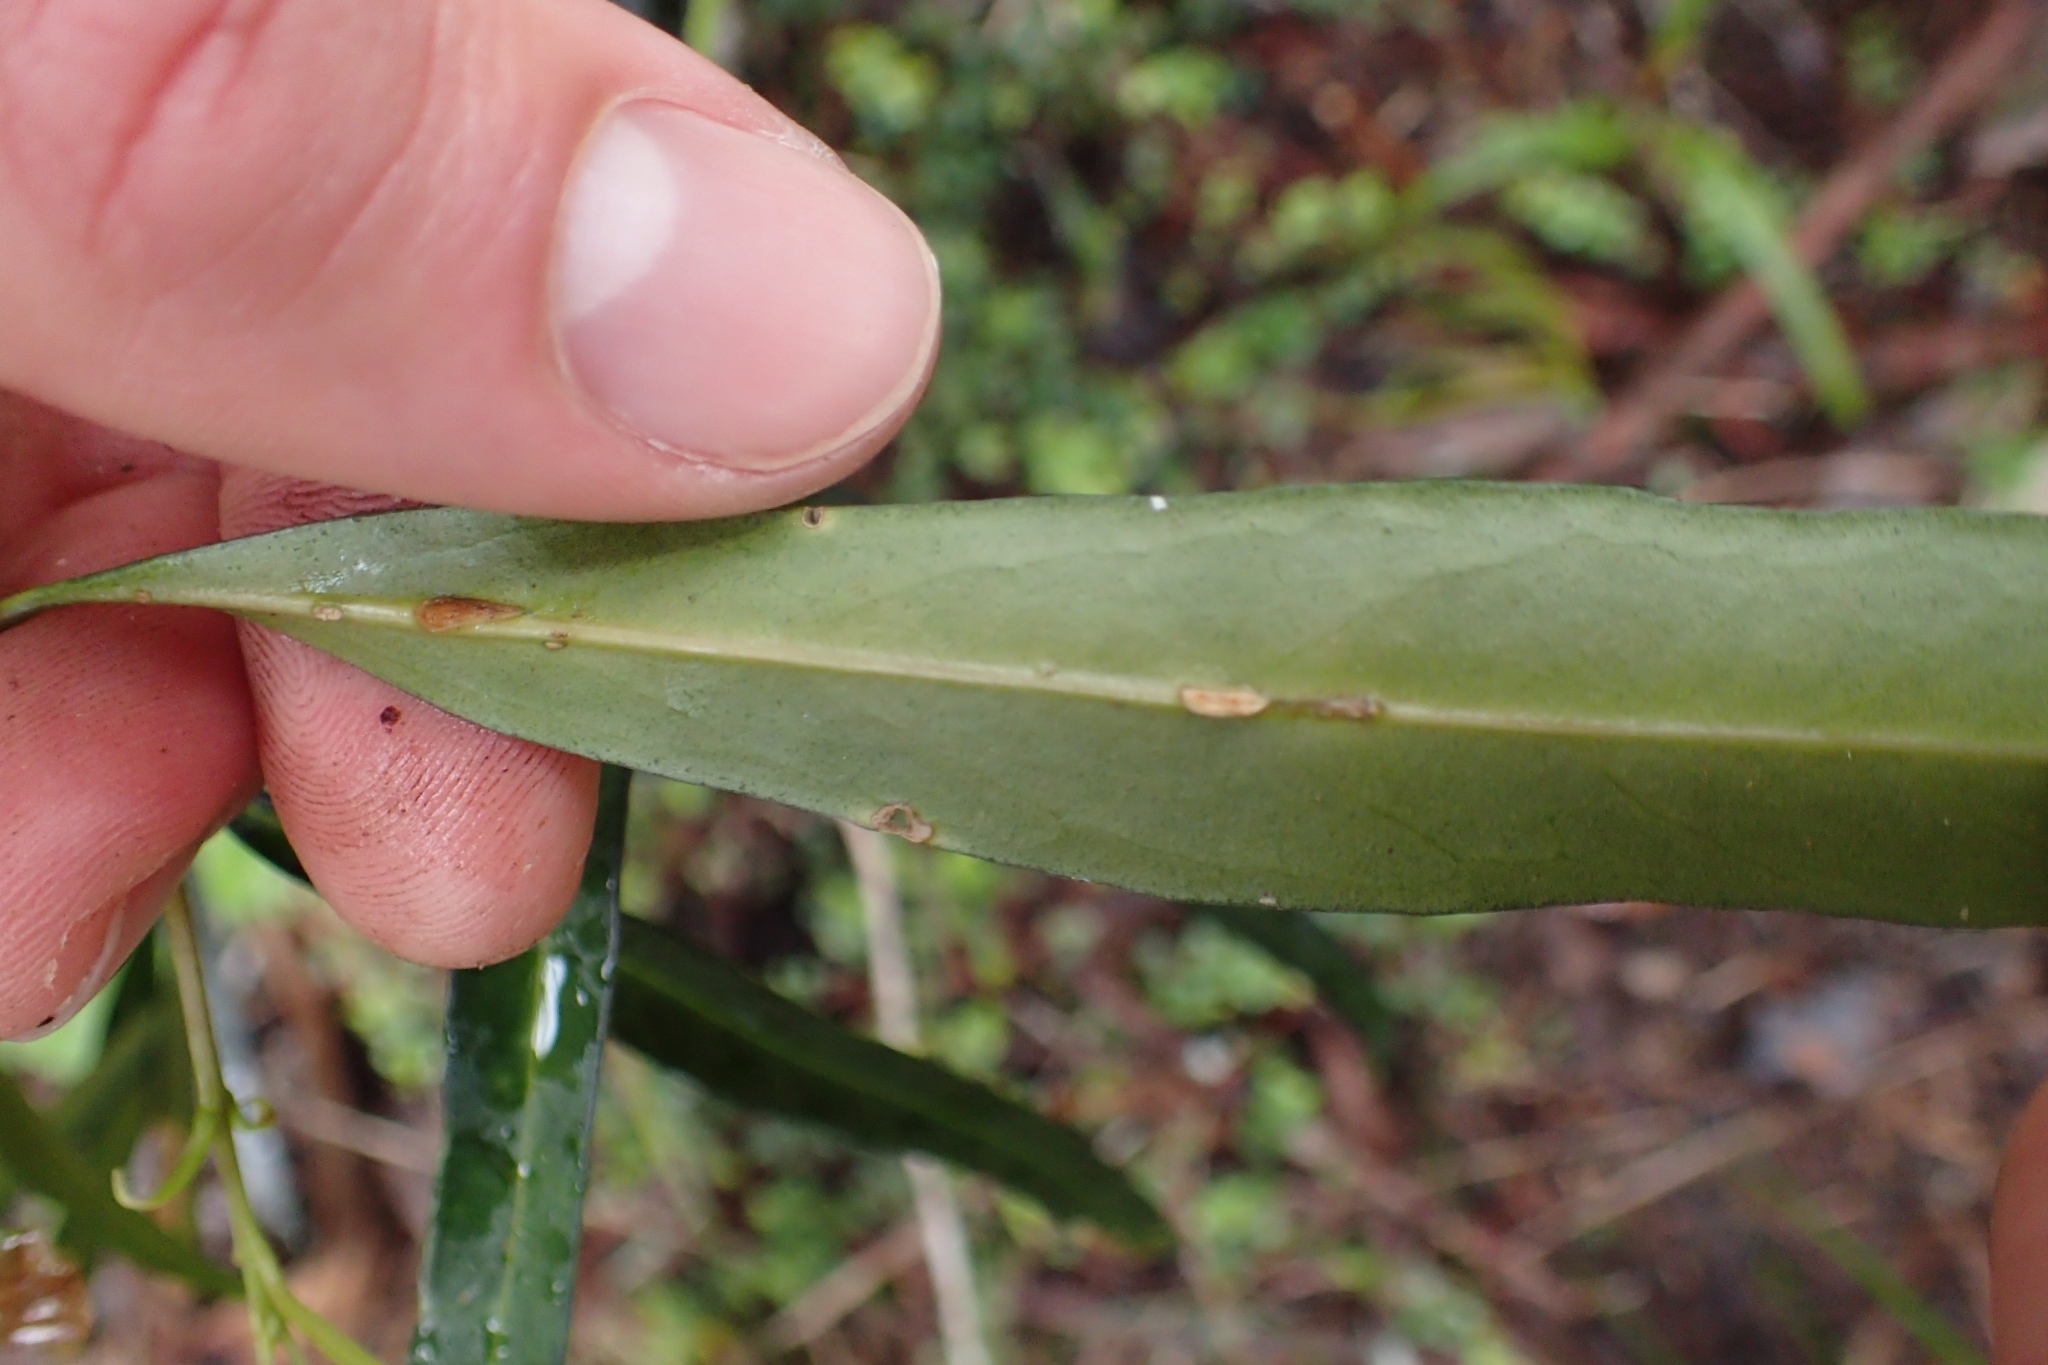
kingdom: Plantae
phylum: Tracheophyta
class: Magnoliopsida
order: Lamiales
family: Oleaceae
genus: Nestegis
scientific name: Nestegis lanceolata
